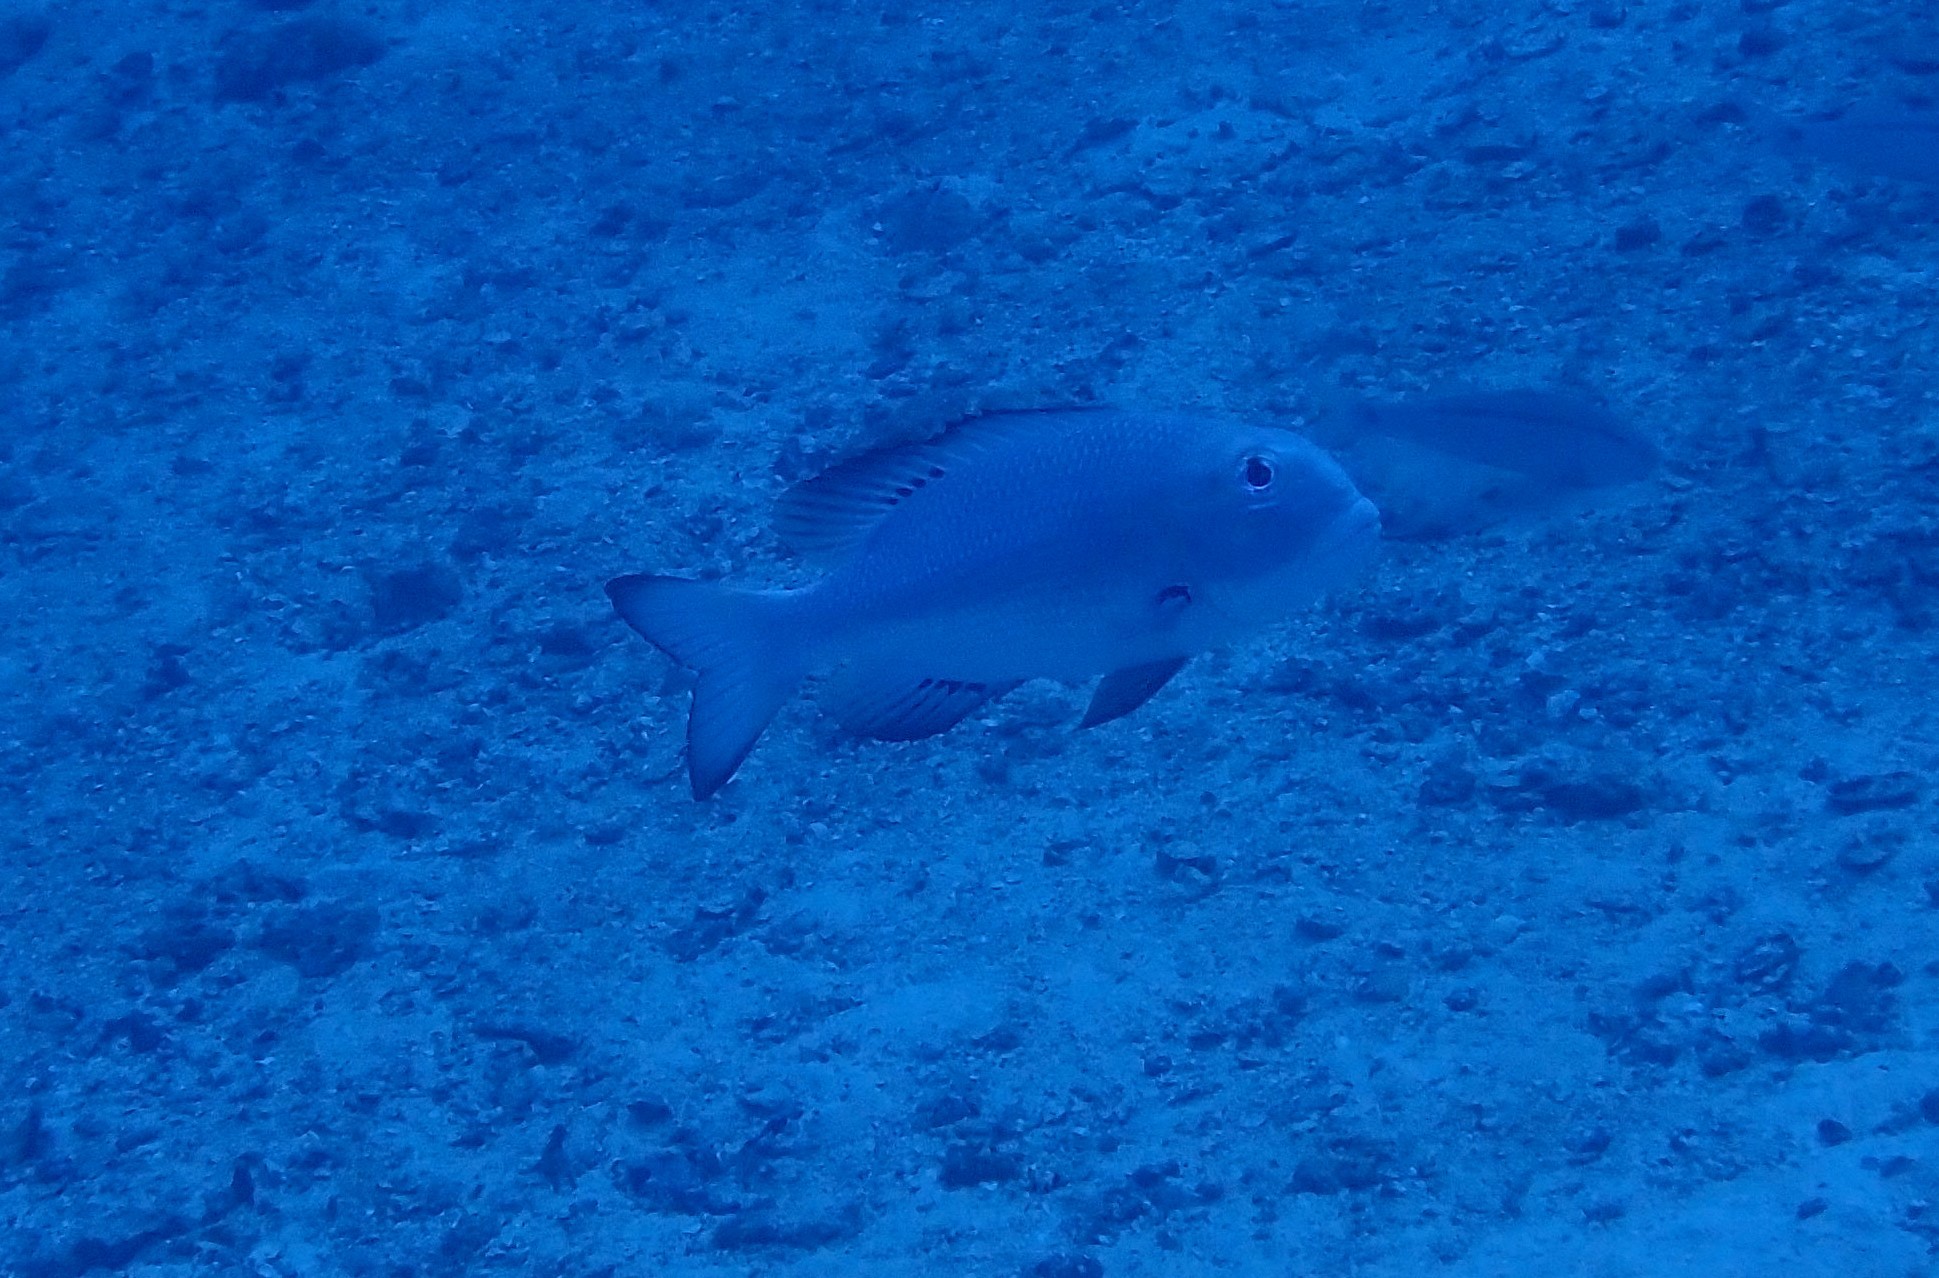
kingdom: Animalia
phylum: Chordata
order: Perciformes
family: Lethrinidae
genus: Monotaxis
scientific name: Monotaxis grandoculis
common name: Bigeye emperor
